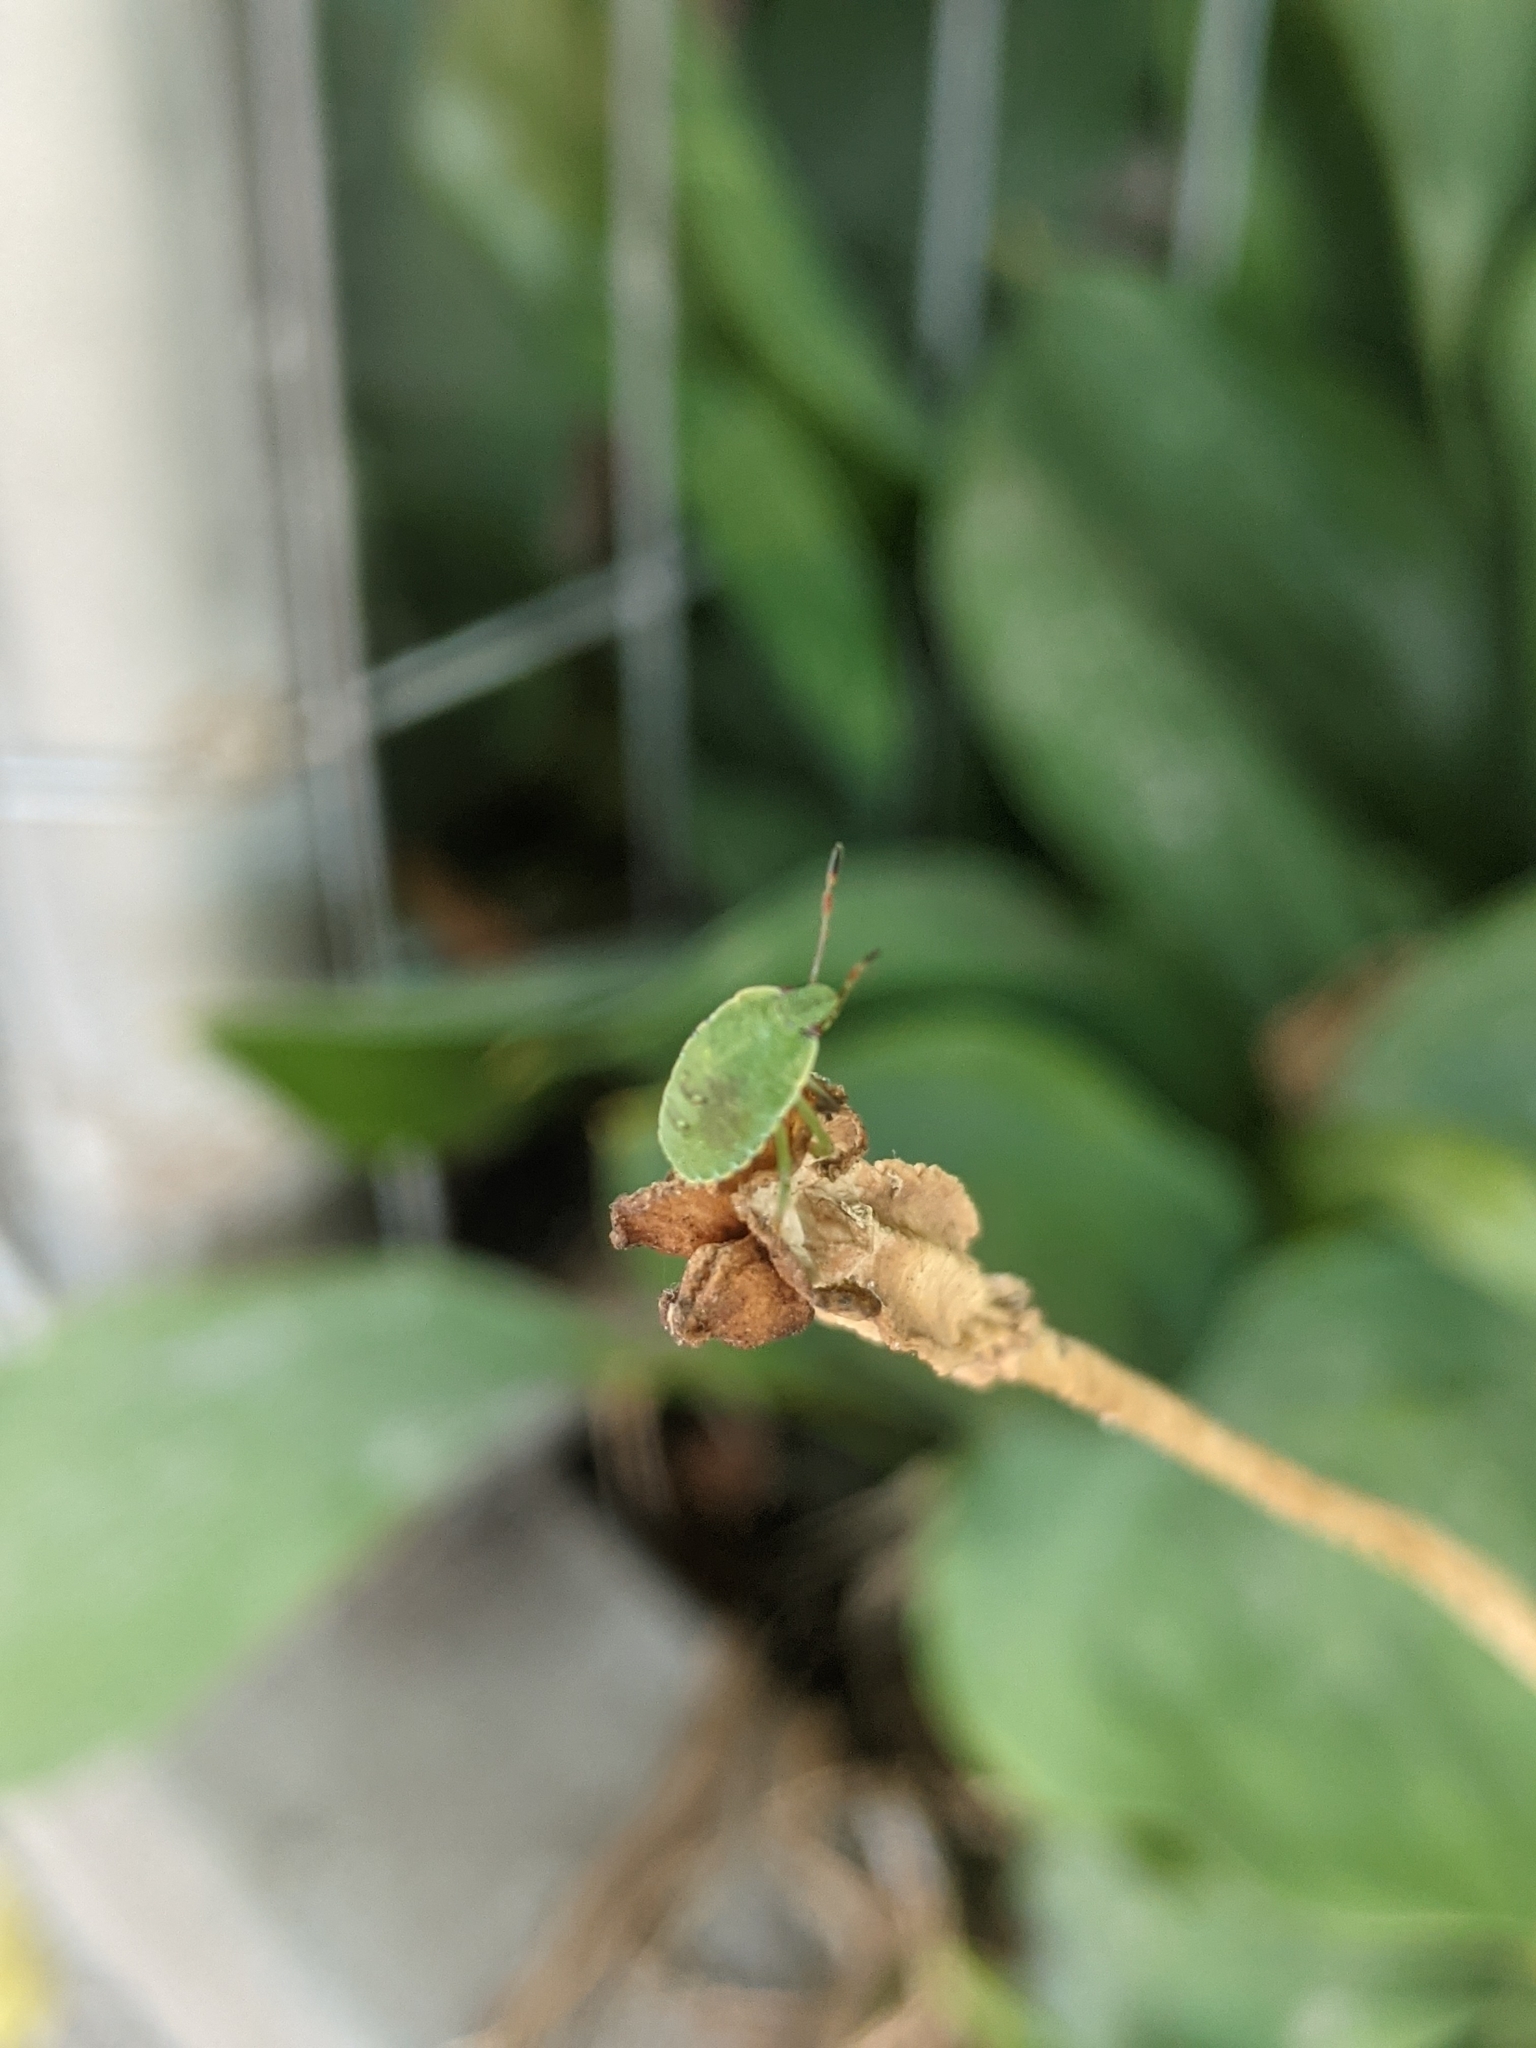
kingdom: Animalia
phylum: Arthropoda
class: Insecta
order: Hemiptera
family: Pentatomidae
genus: Palomena
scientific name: Palomena prasina
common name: Green shieldbug
